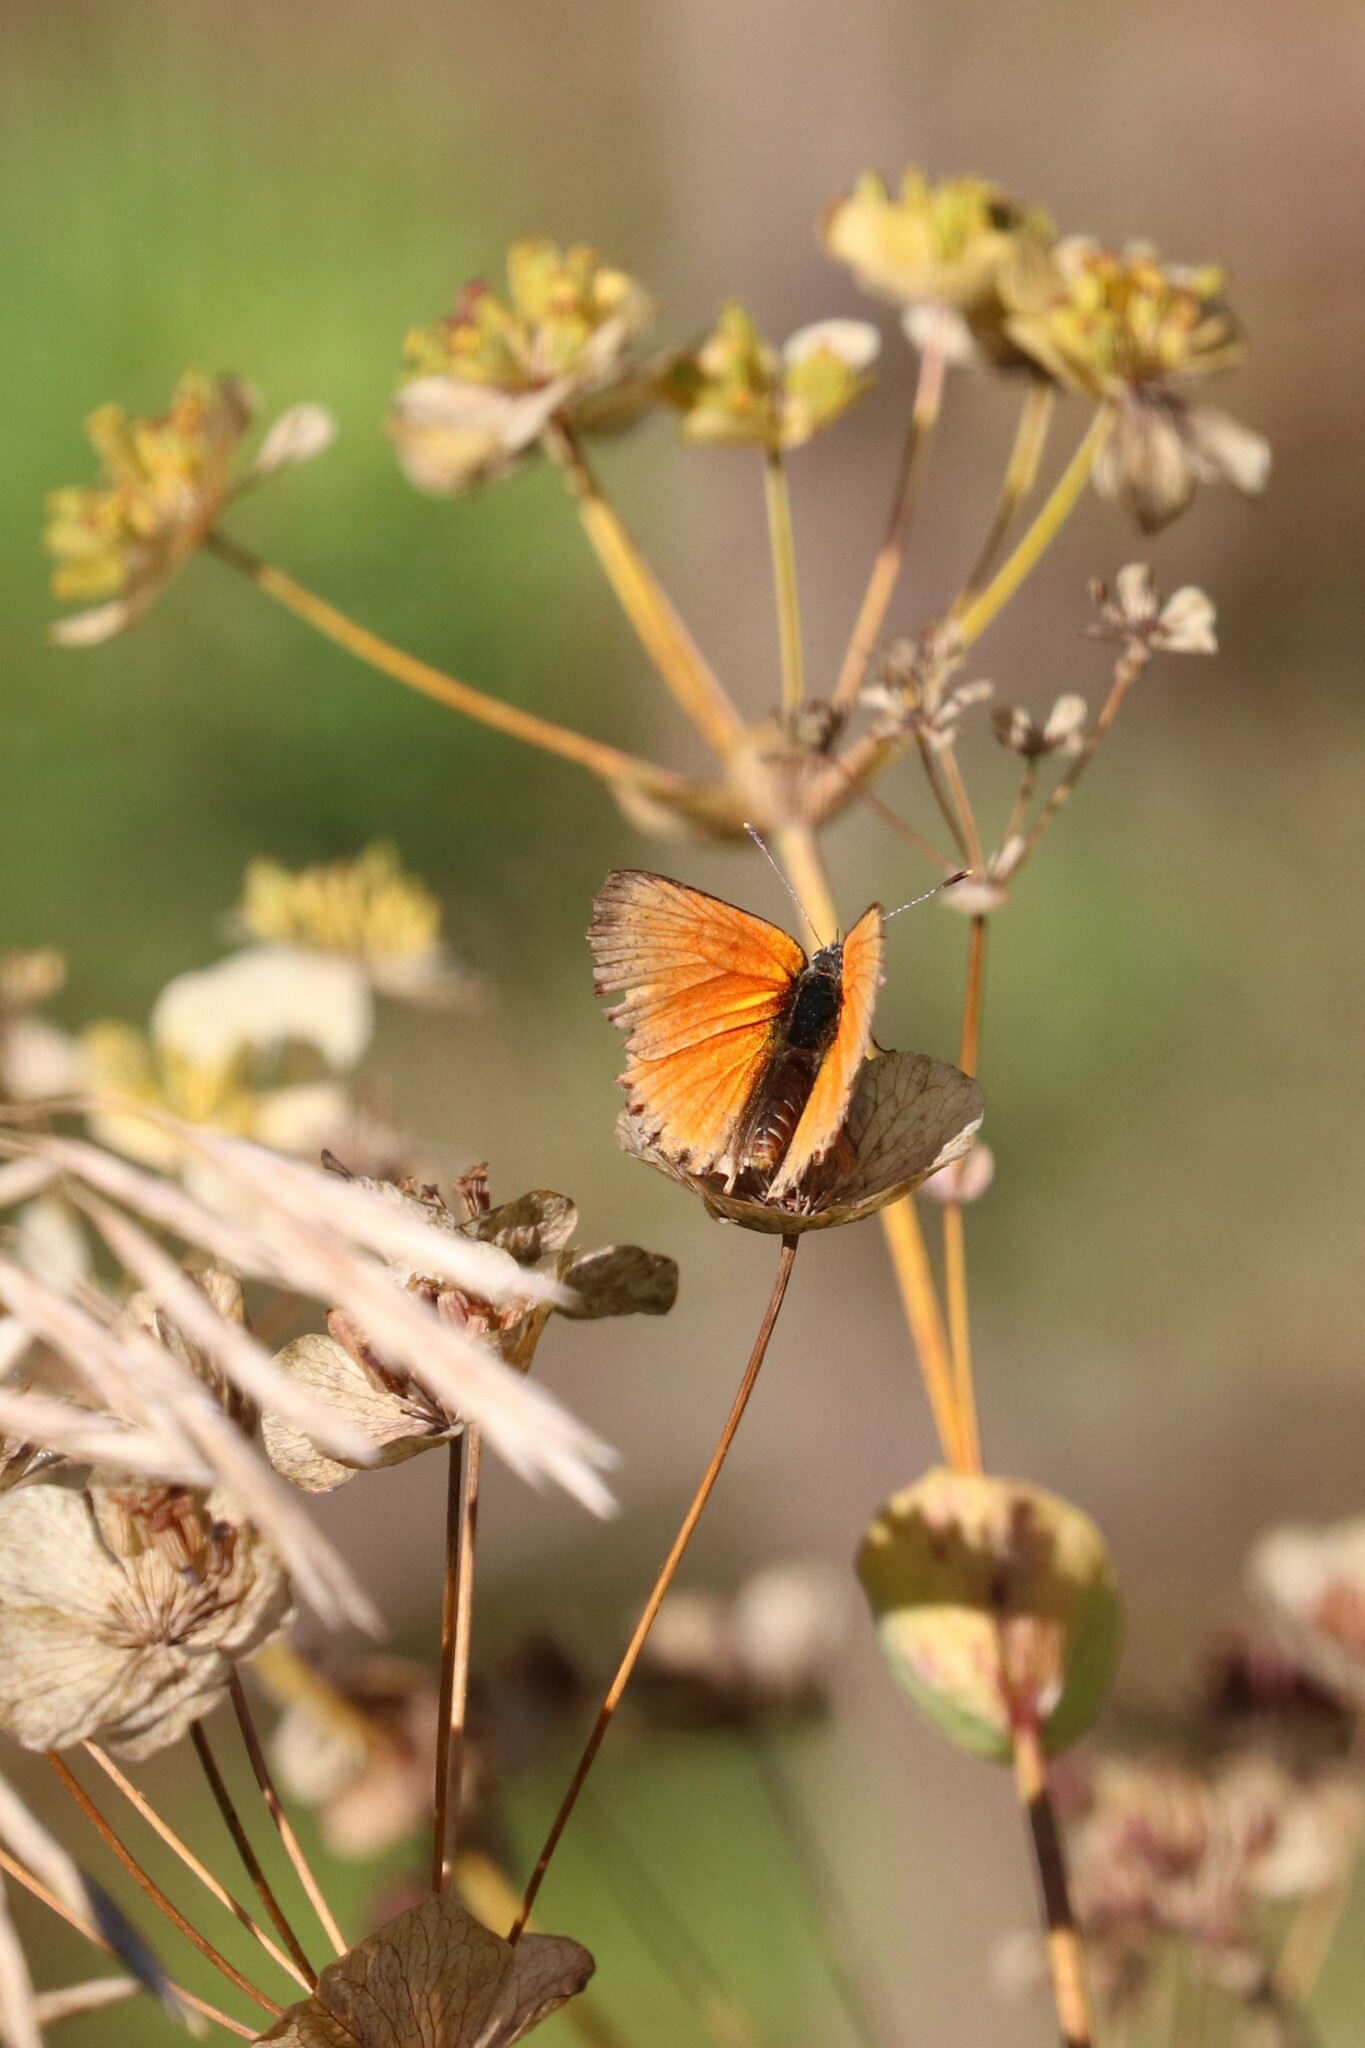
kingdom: Animalia
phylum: Arthropoda
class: Insecta
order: Lepidoptera
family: Lycaenidae
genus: Lycaena
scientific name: Lycaena virgaureae
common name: Scarce copper
